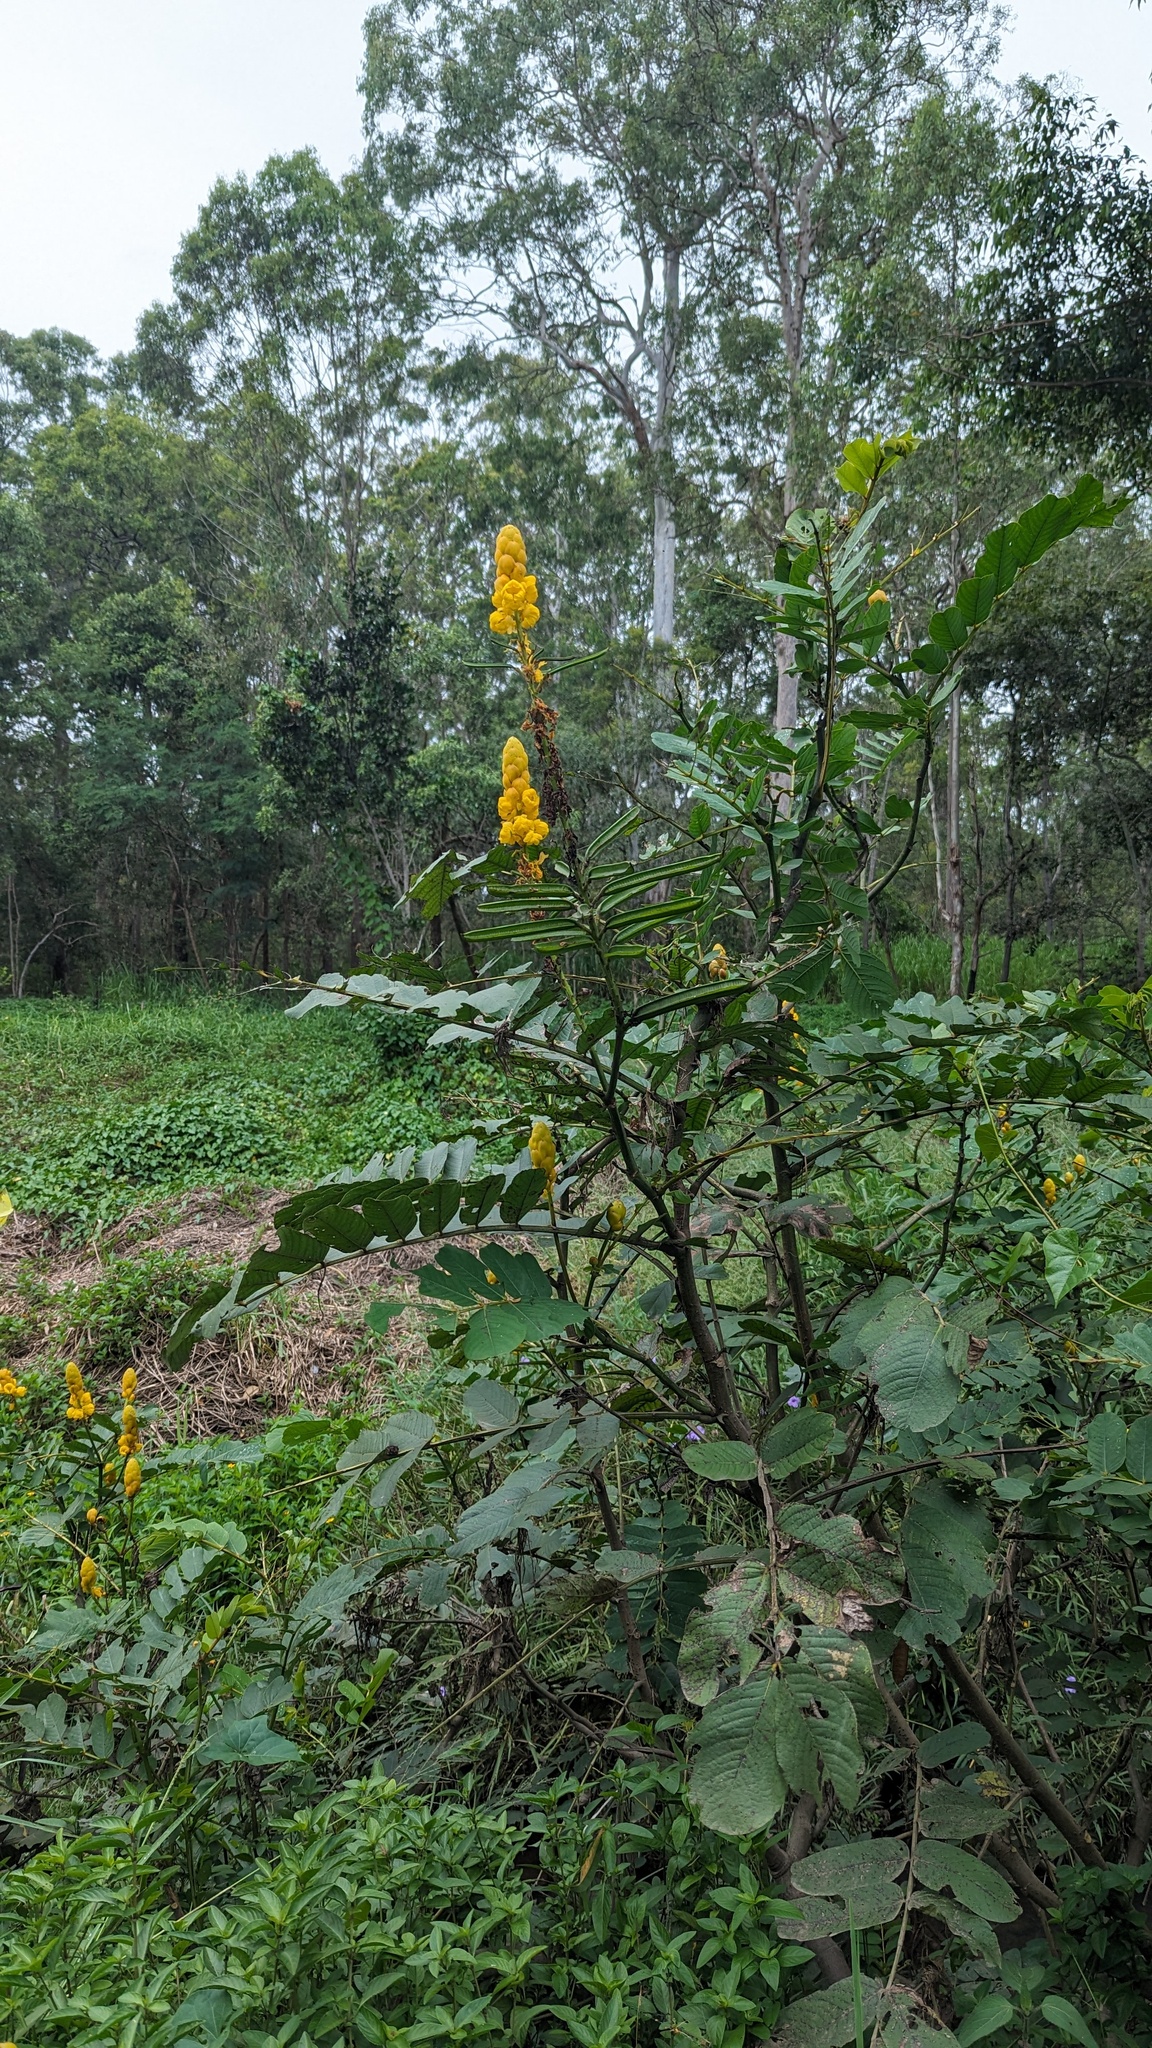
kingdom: Plantae
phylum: Tracheophyta
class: Magnoliopsida
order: Fabales
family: Fabaceae
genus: Senna
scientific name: Senna alata
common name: Emperor's candlesticks
